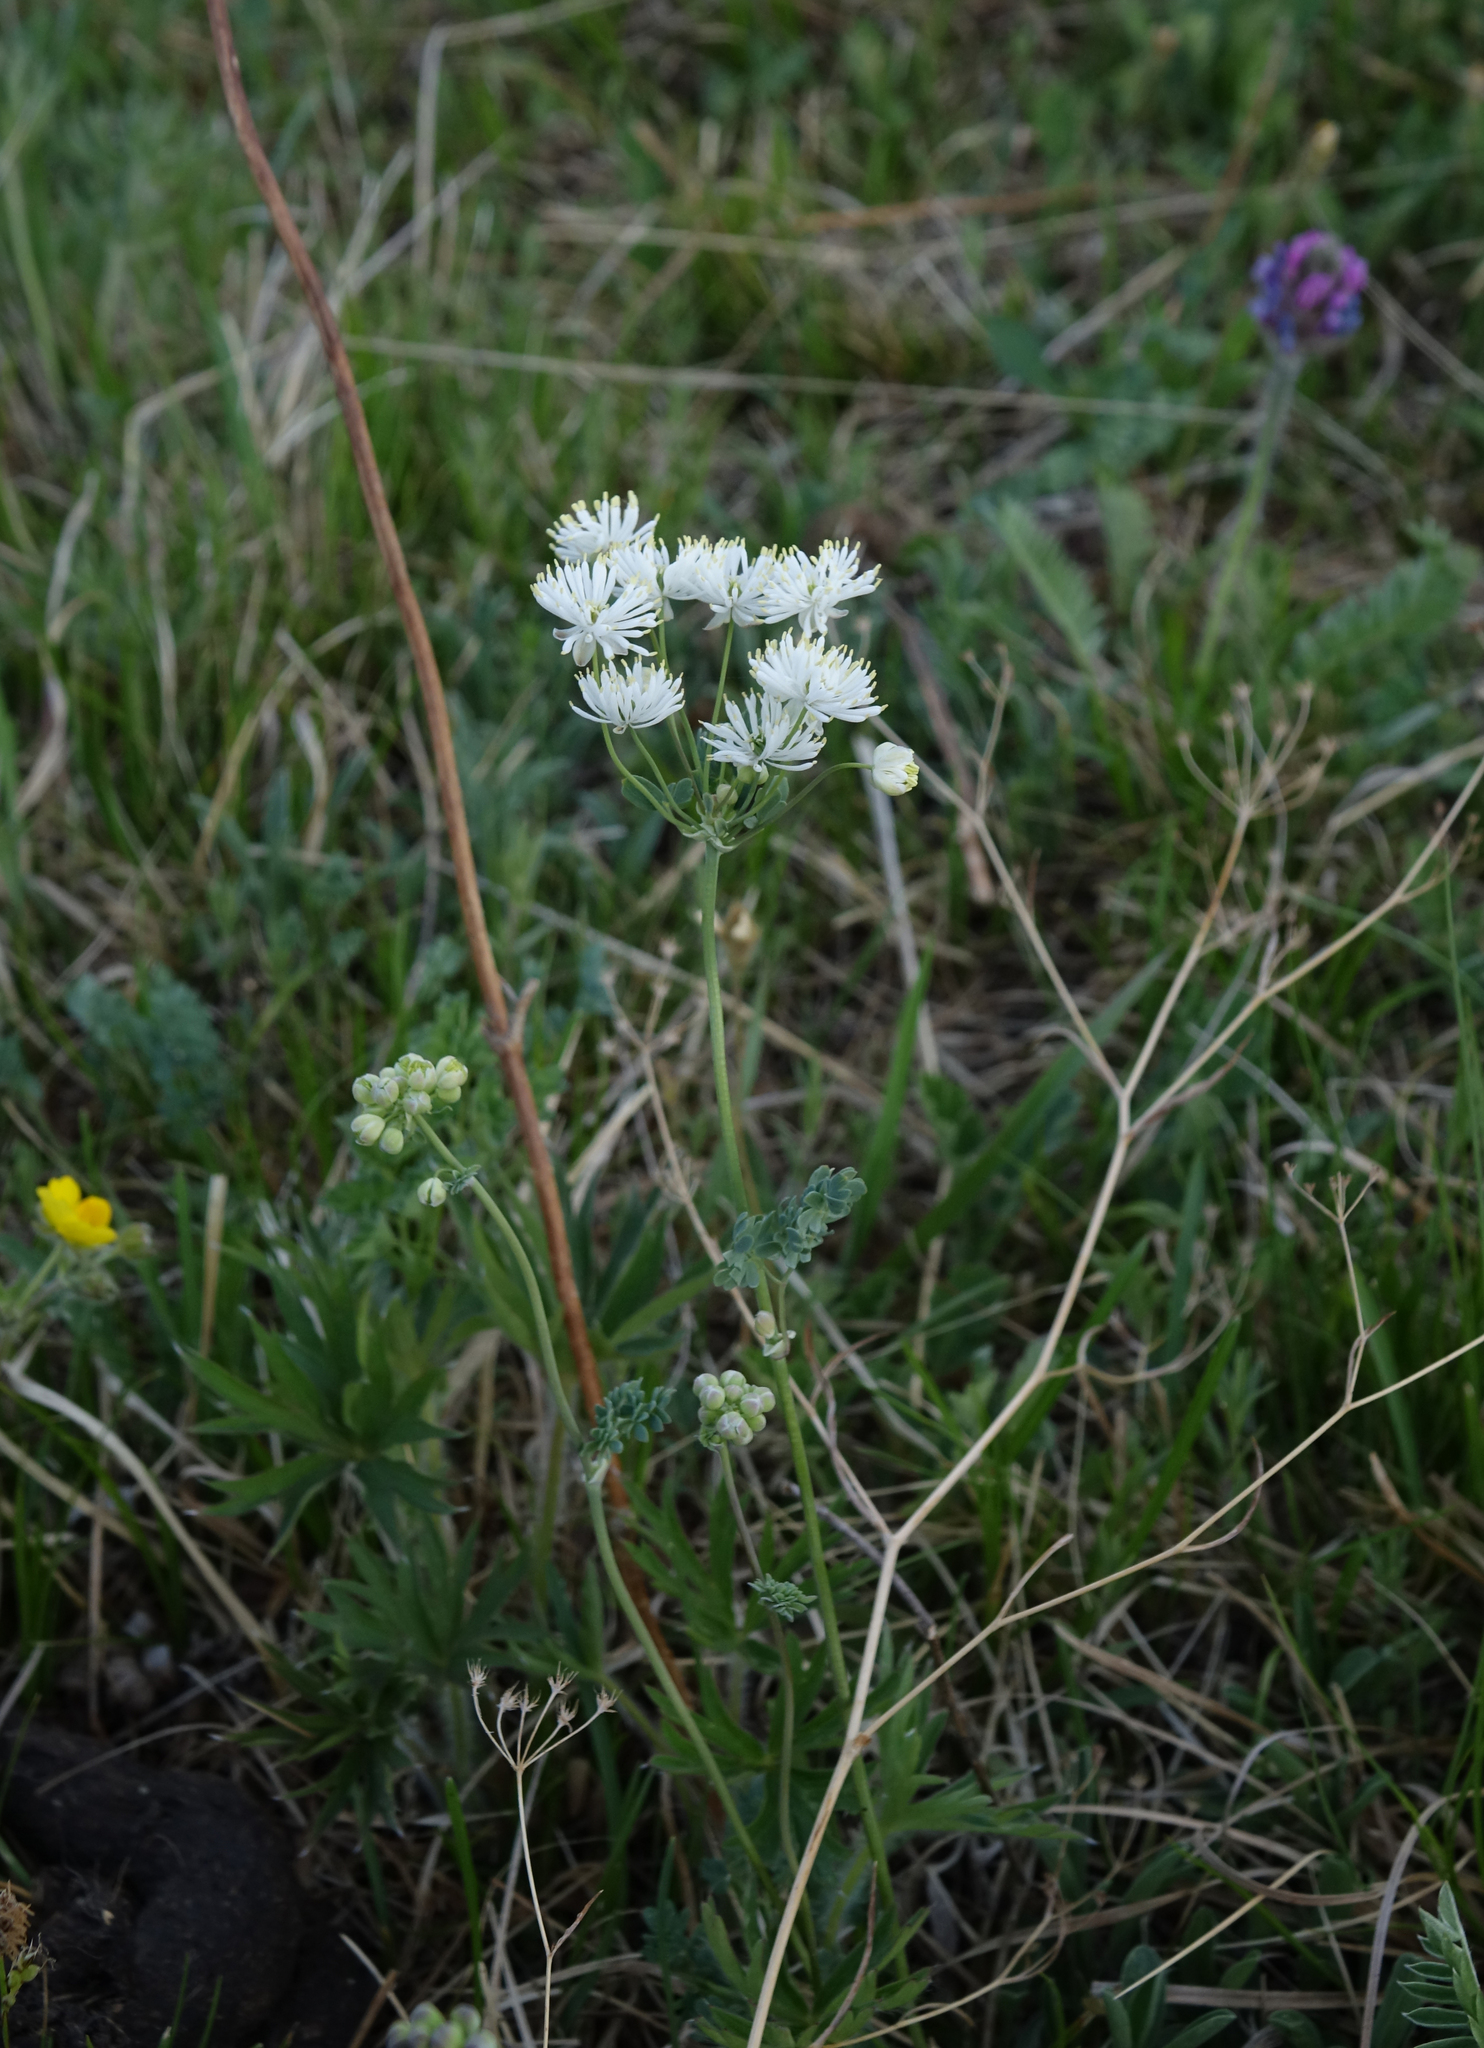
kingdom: Plantae
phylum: Tracheophyta
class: Magnoliopsida
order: Ranunculales
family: Ranunculaceae
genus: Thalictrum
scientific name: Thalictrum petaloideum
